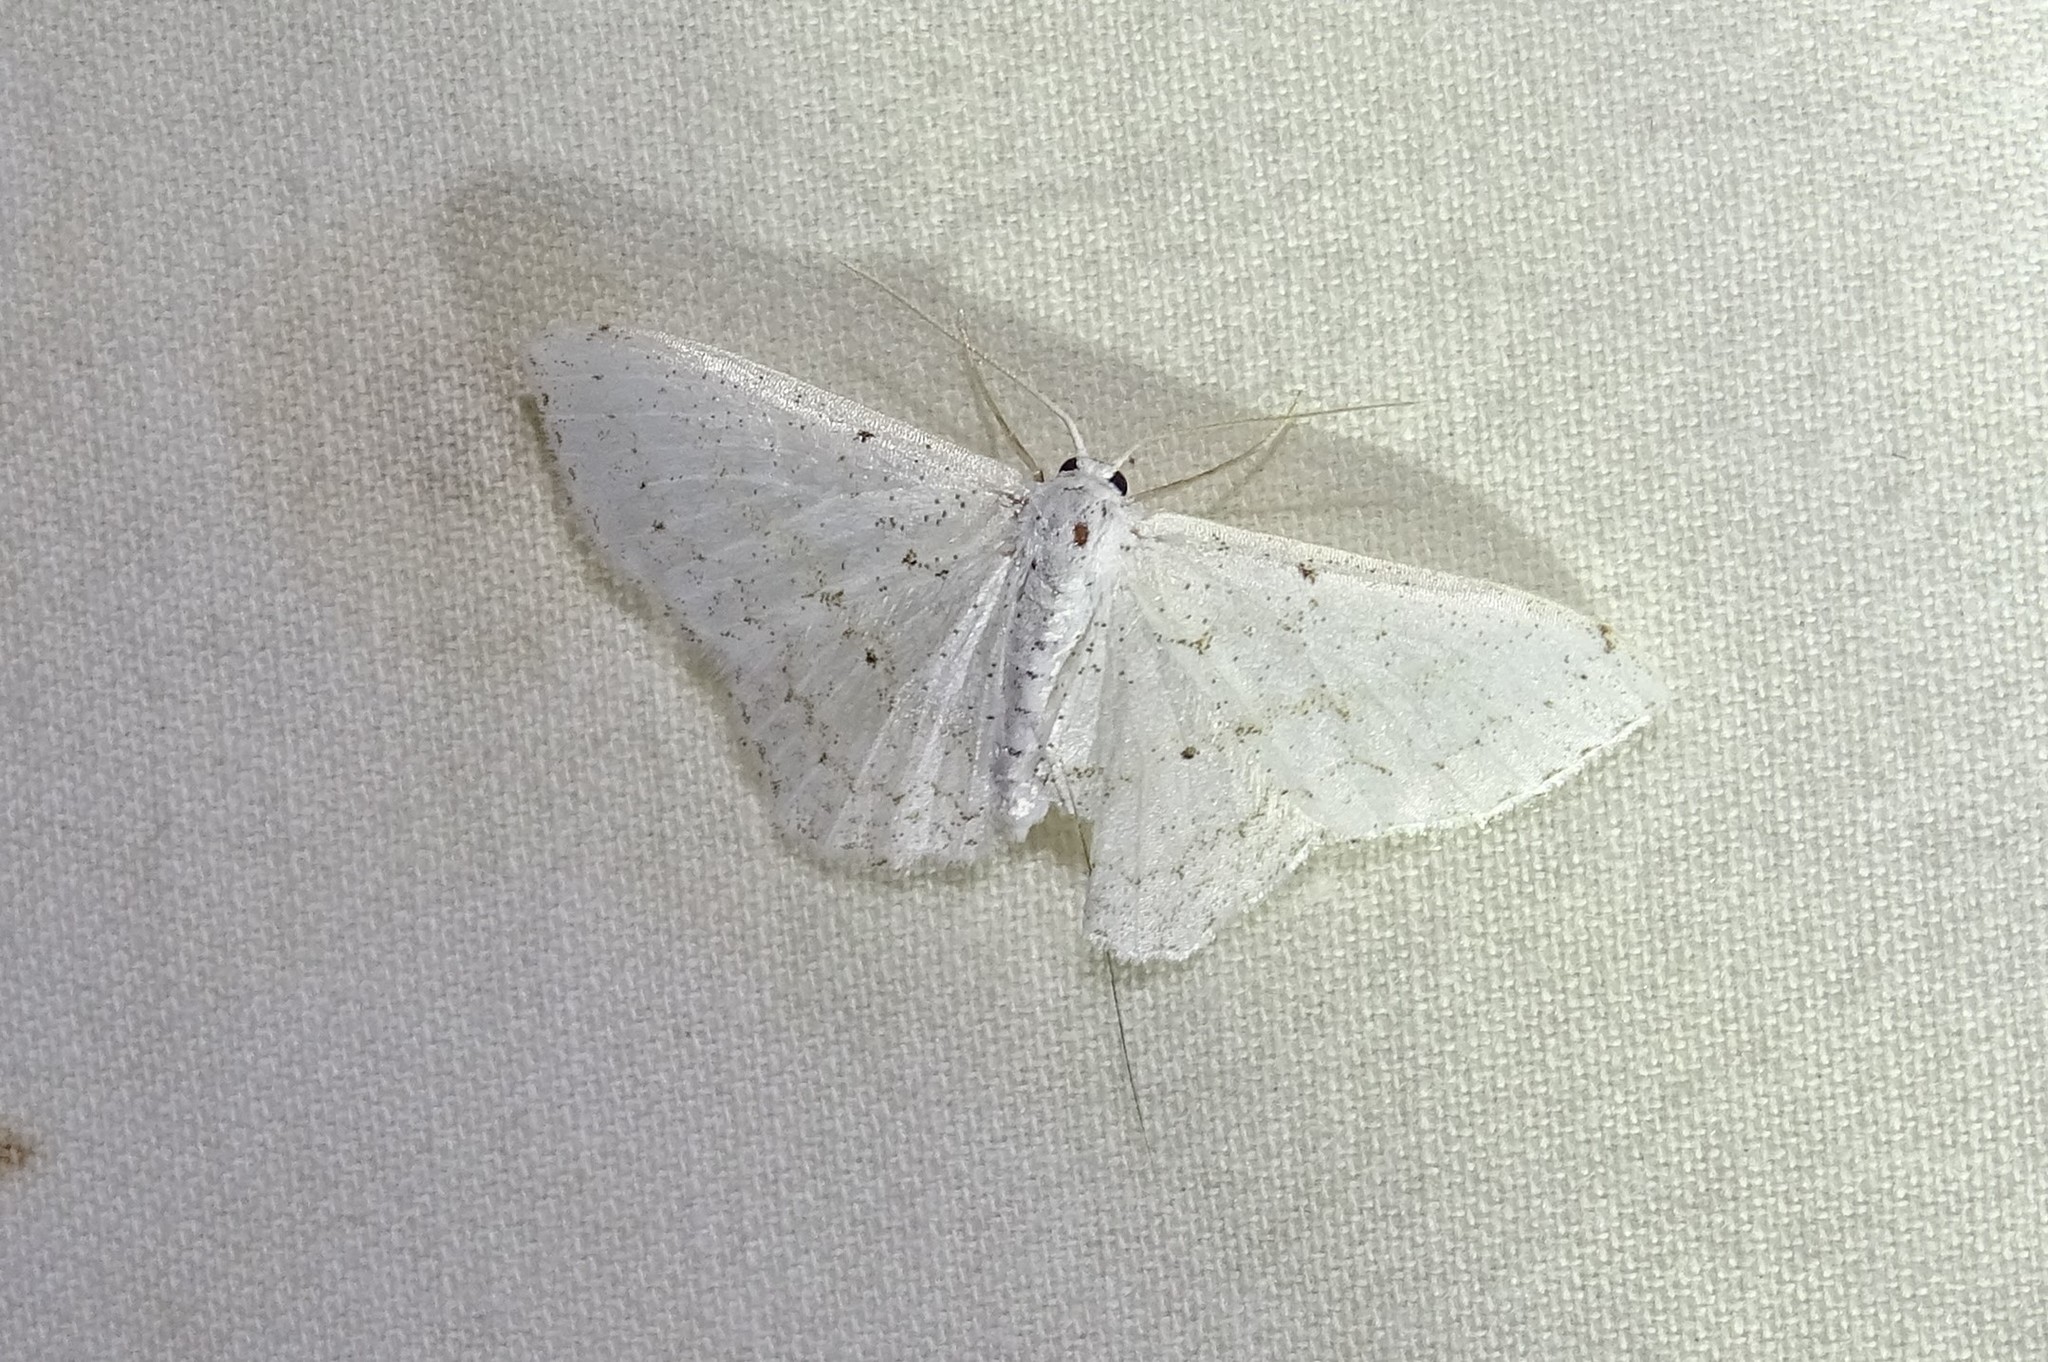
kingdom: Animalia
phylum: Arthropoda
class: Insecta
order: Lepidoptera
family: Geometridae
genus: Idaea
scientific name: Idaea tacturata
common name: Dot-lined wave
